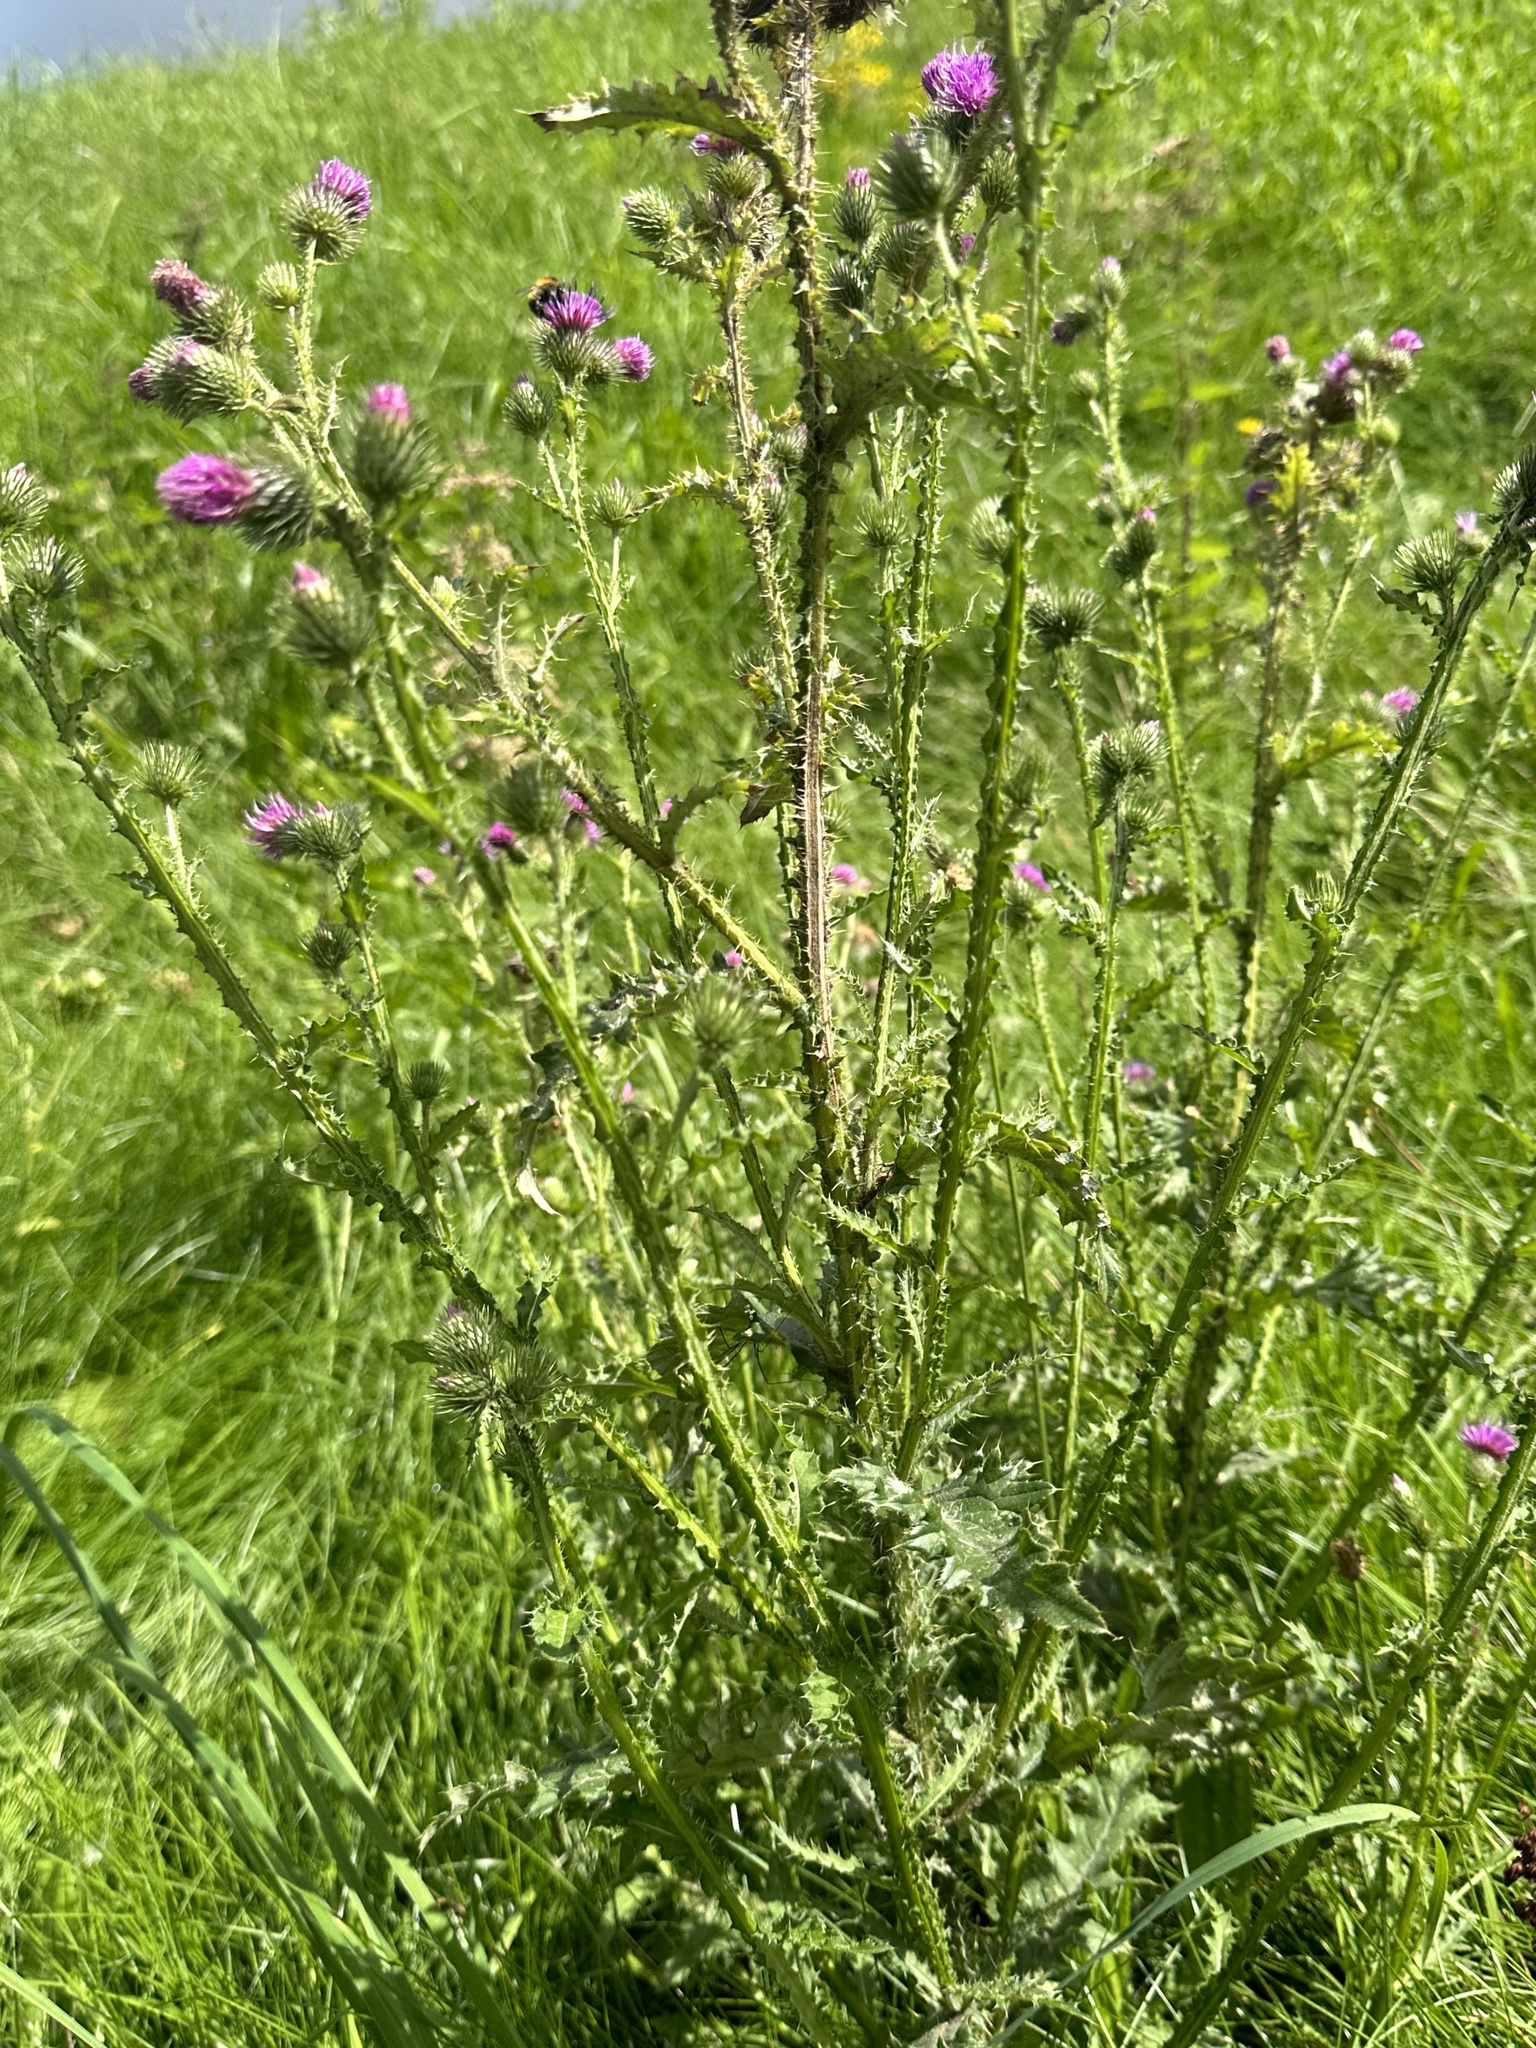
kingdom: Plantae
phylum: Tracheophyta
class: Magnoliopsida
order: Asterales
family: Asteraceae
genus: Carduus
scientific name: Carduus crispus
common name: Welted thistle
